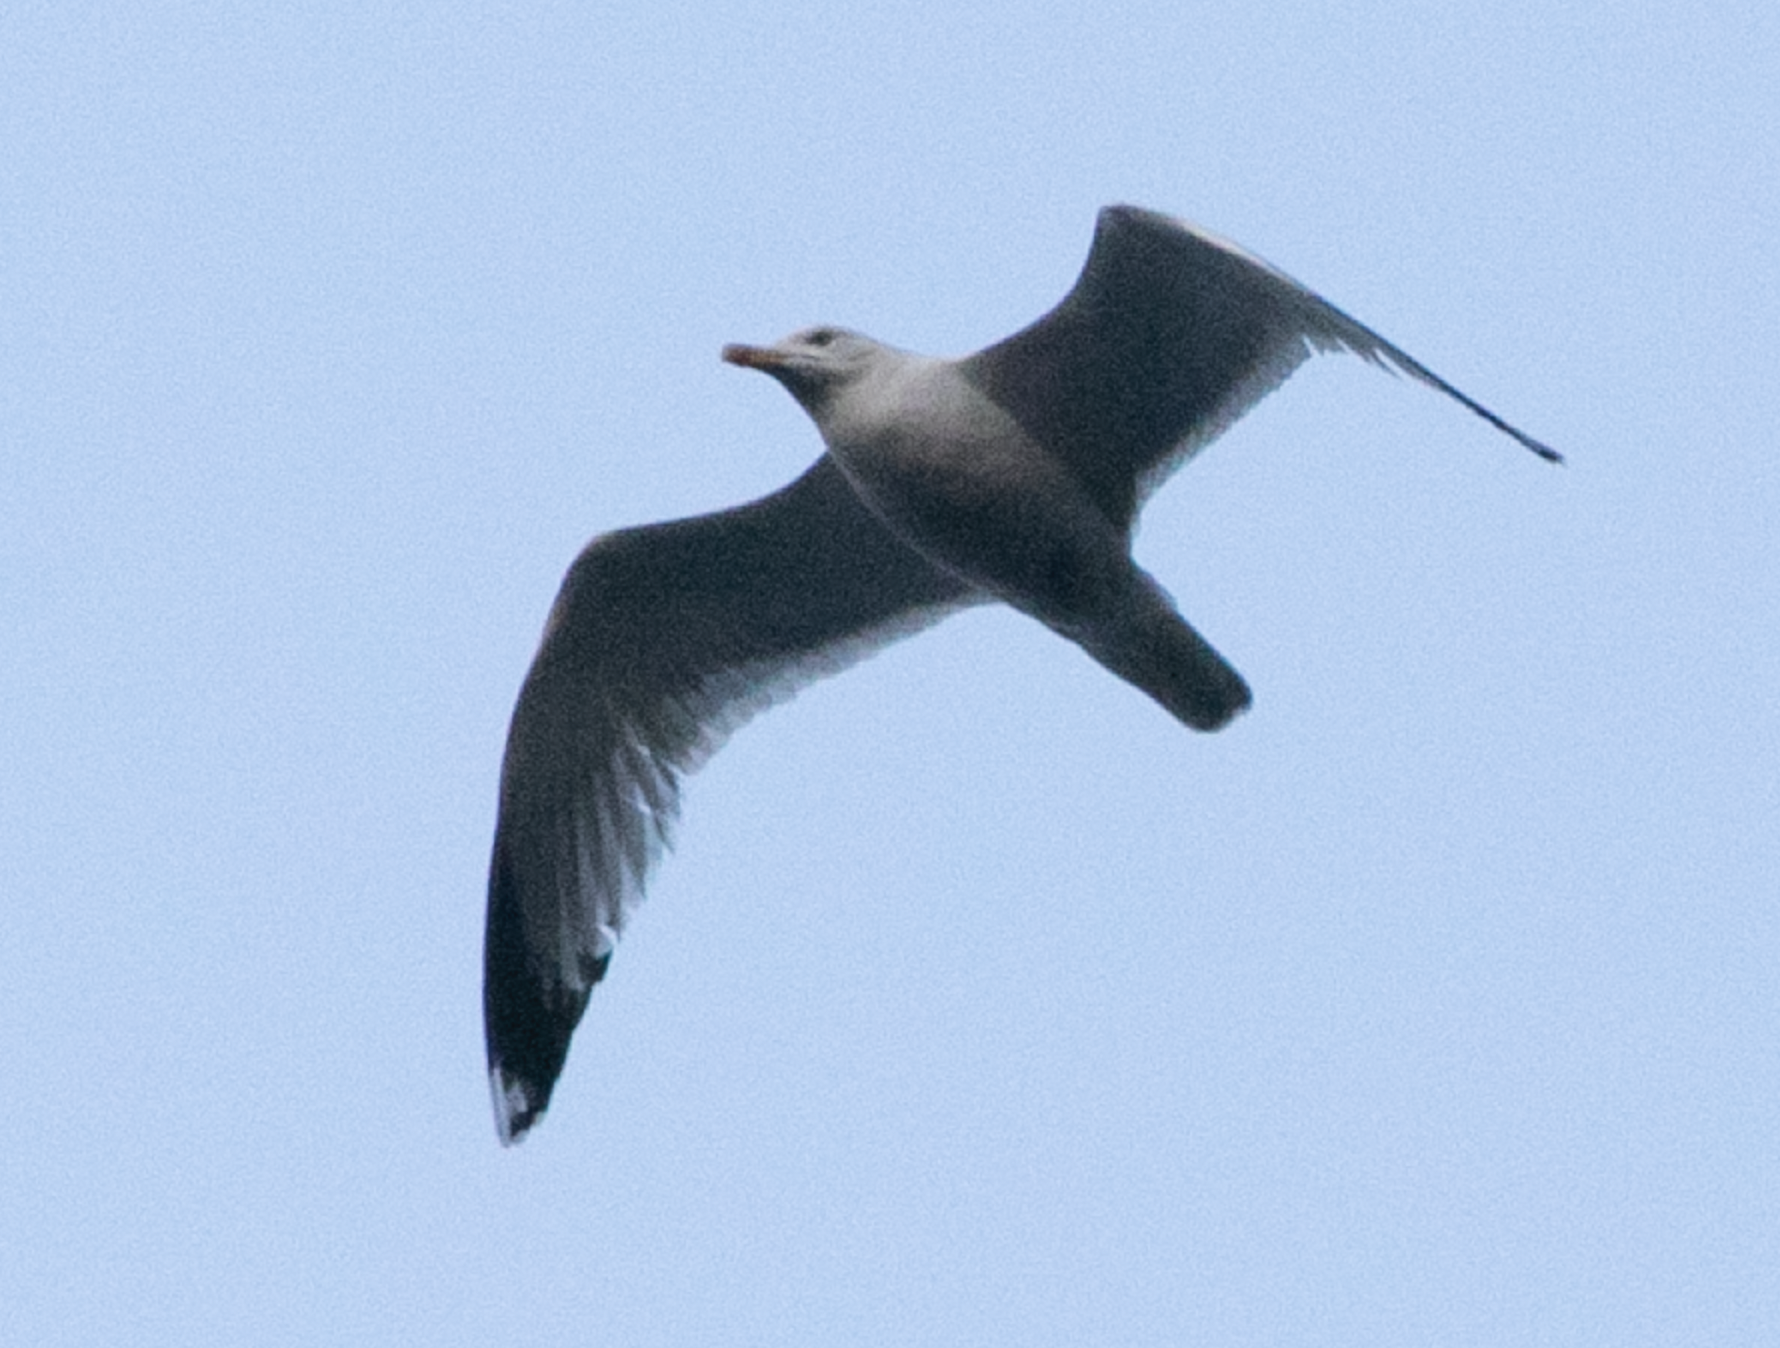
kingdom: Animalia
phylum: Chordata
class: Aves
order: Charadriiformes
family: Laridae
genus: Larus
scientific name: Larus michahellis
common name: Yellow-legged gull
